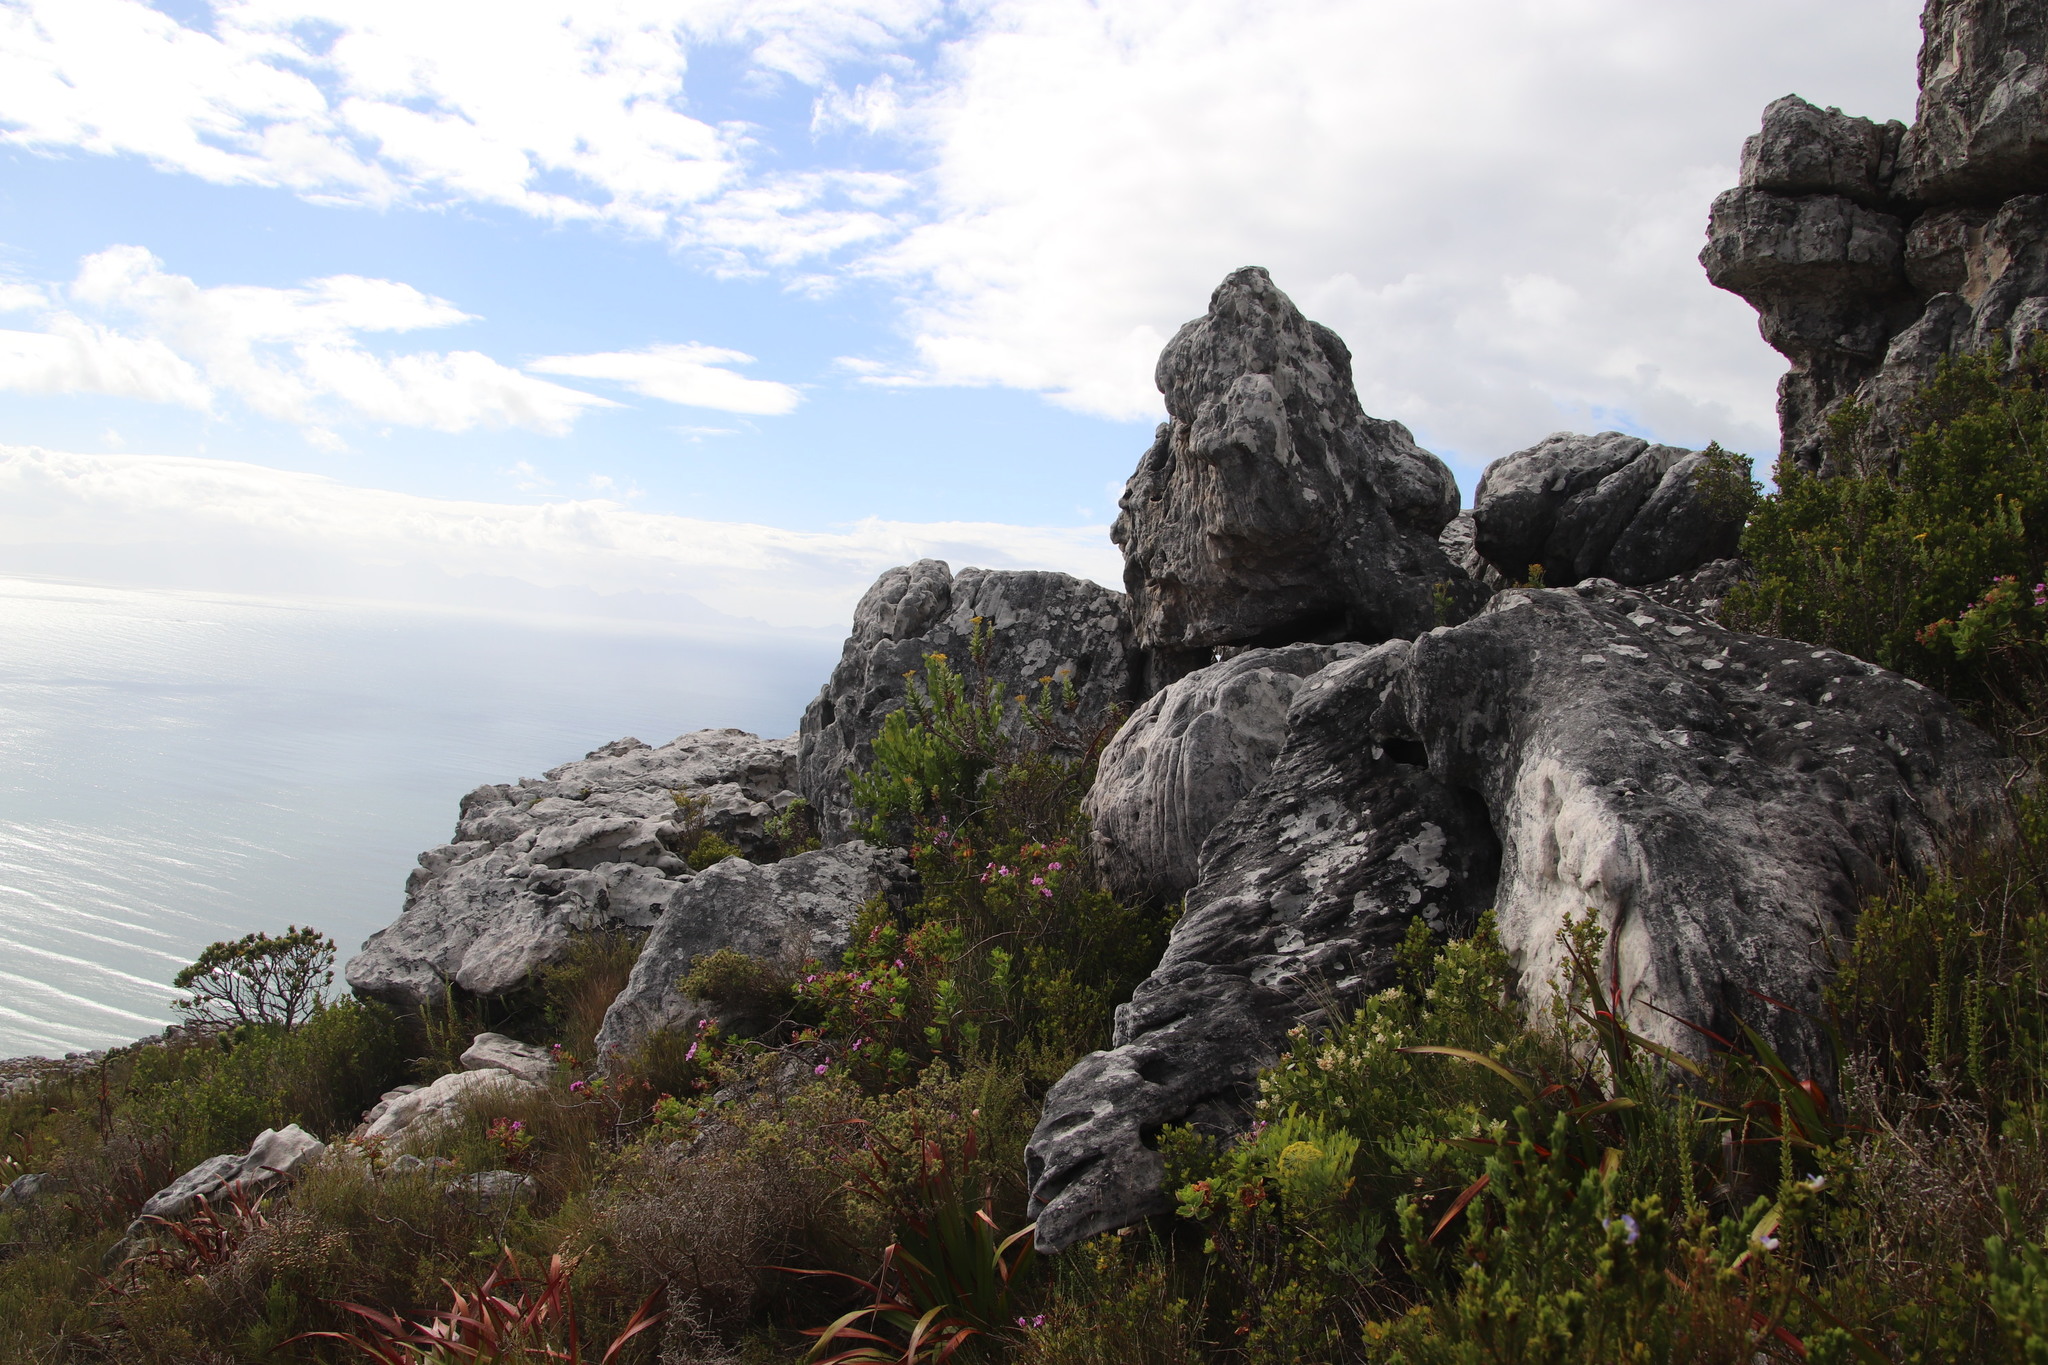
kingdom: Plantae
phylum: Tracheophyta
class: Magnoliopsida
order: Asterales
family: Asteraceae
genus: Senecio
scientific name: Senecio rigidus
